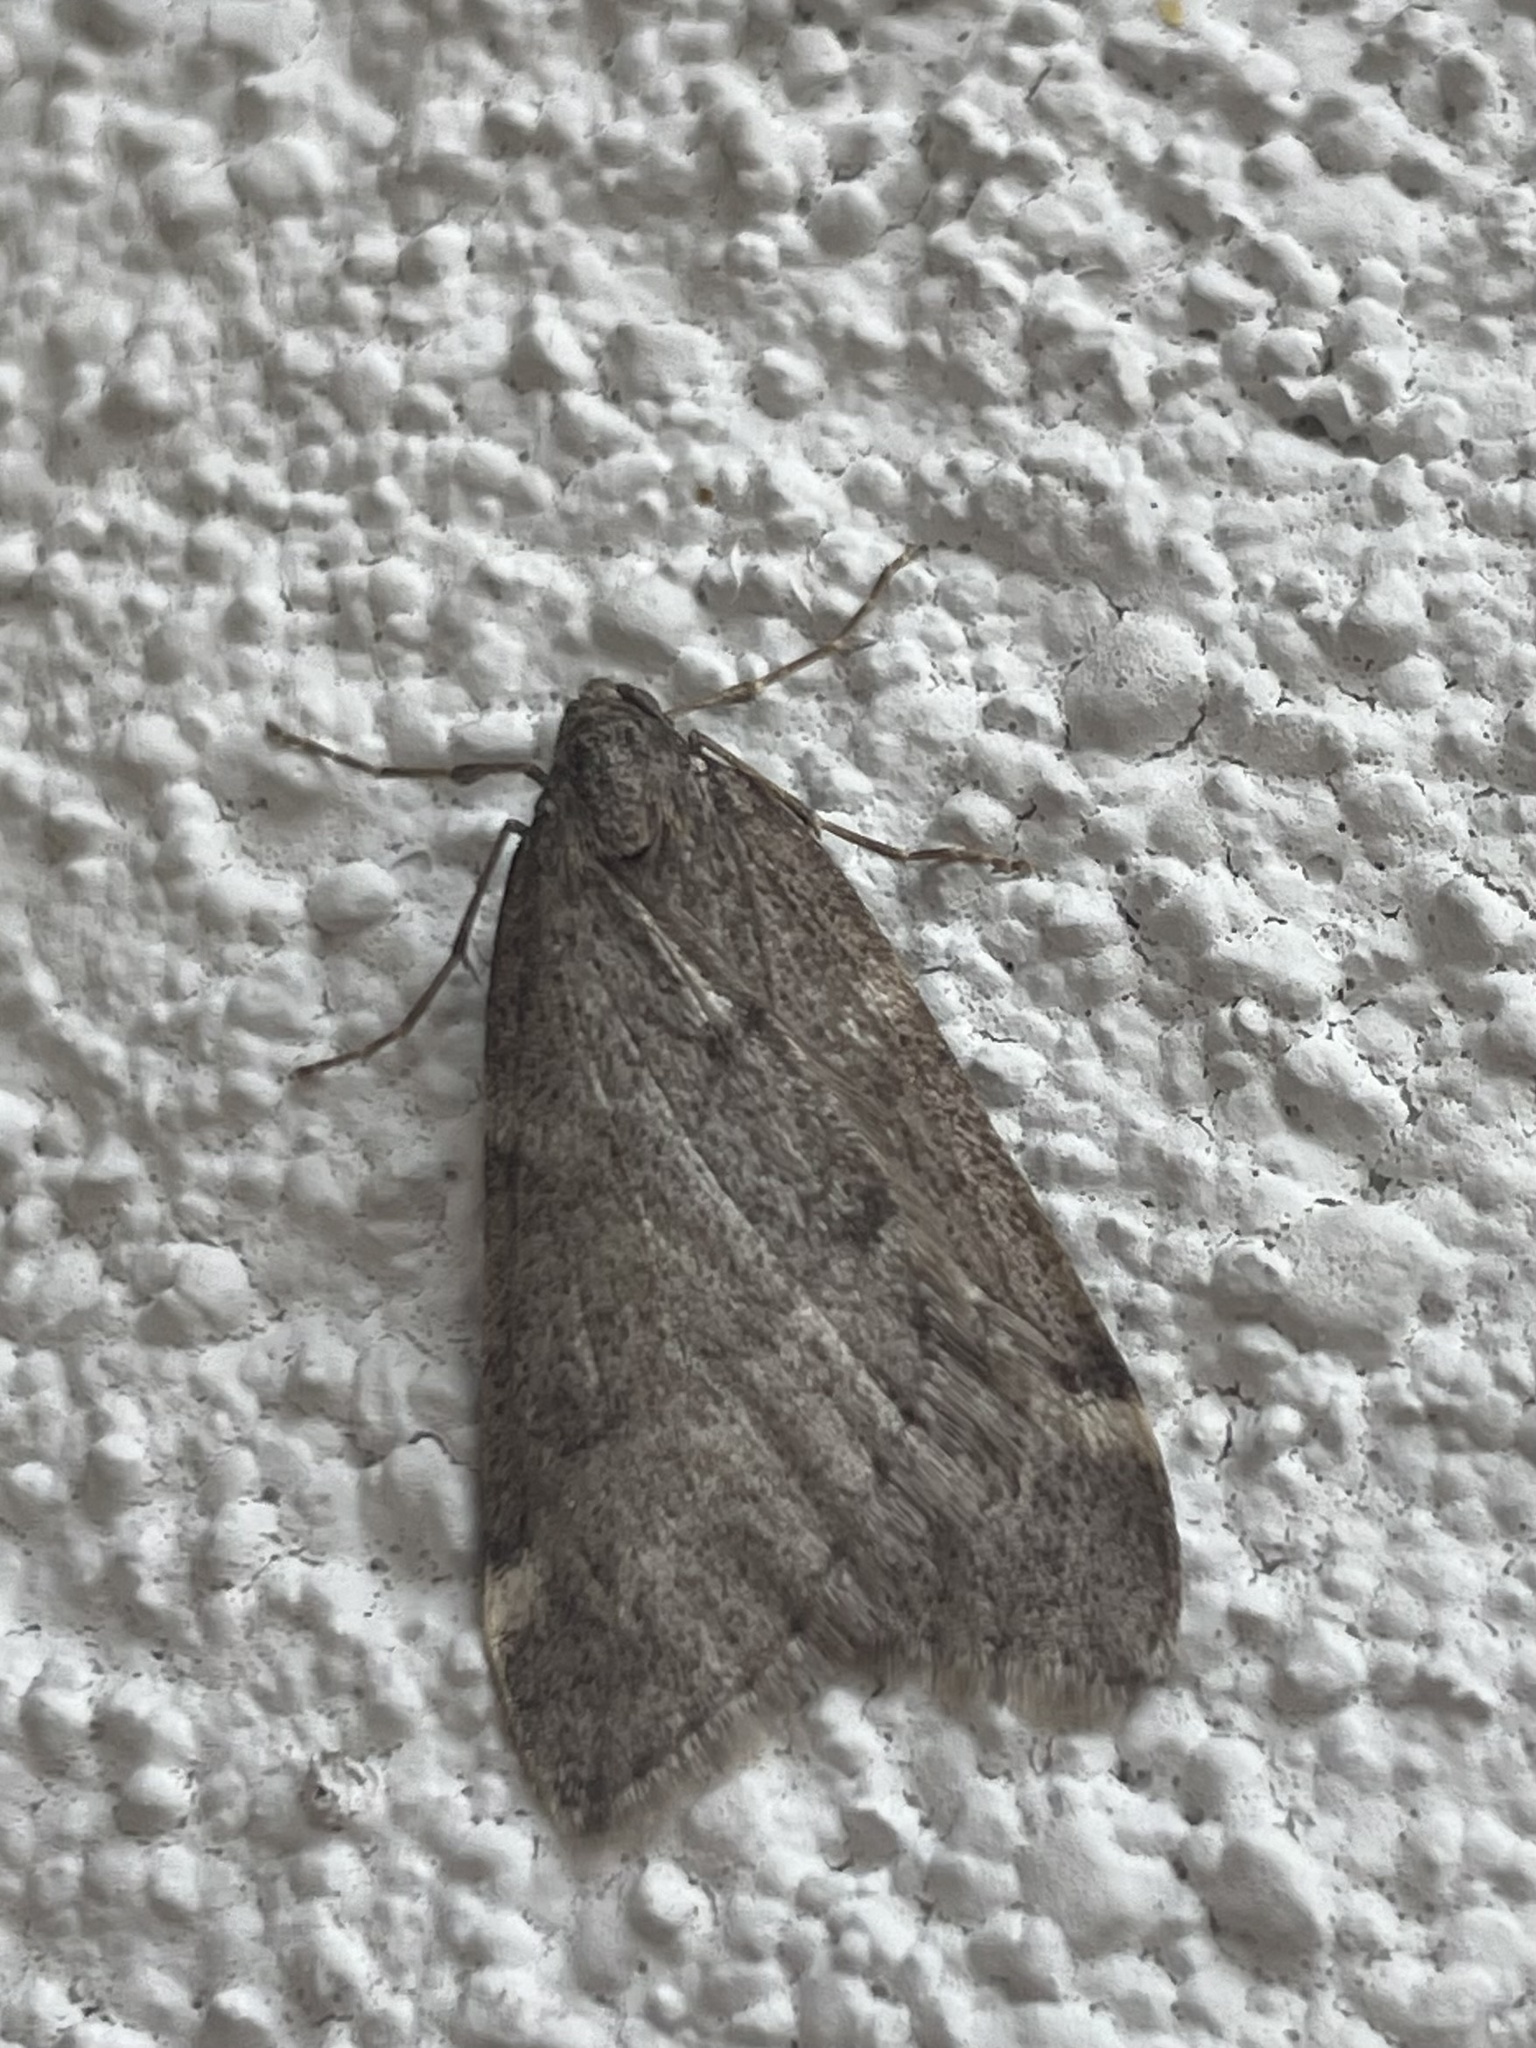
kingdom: Animalia
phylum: Arthropoda
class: Insecta
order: Lepidoptera
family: Geometridae
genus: Alsophila
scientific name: Alsophila pometaria
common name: Fall cankerworm
